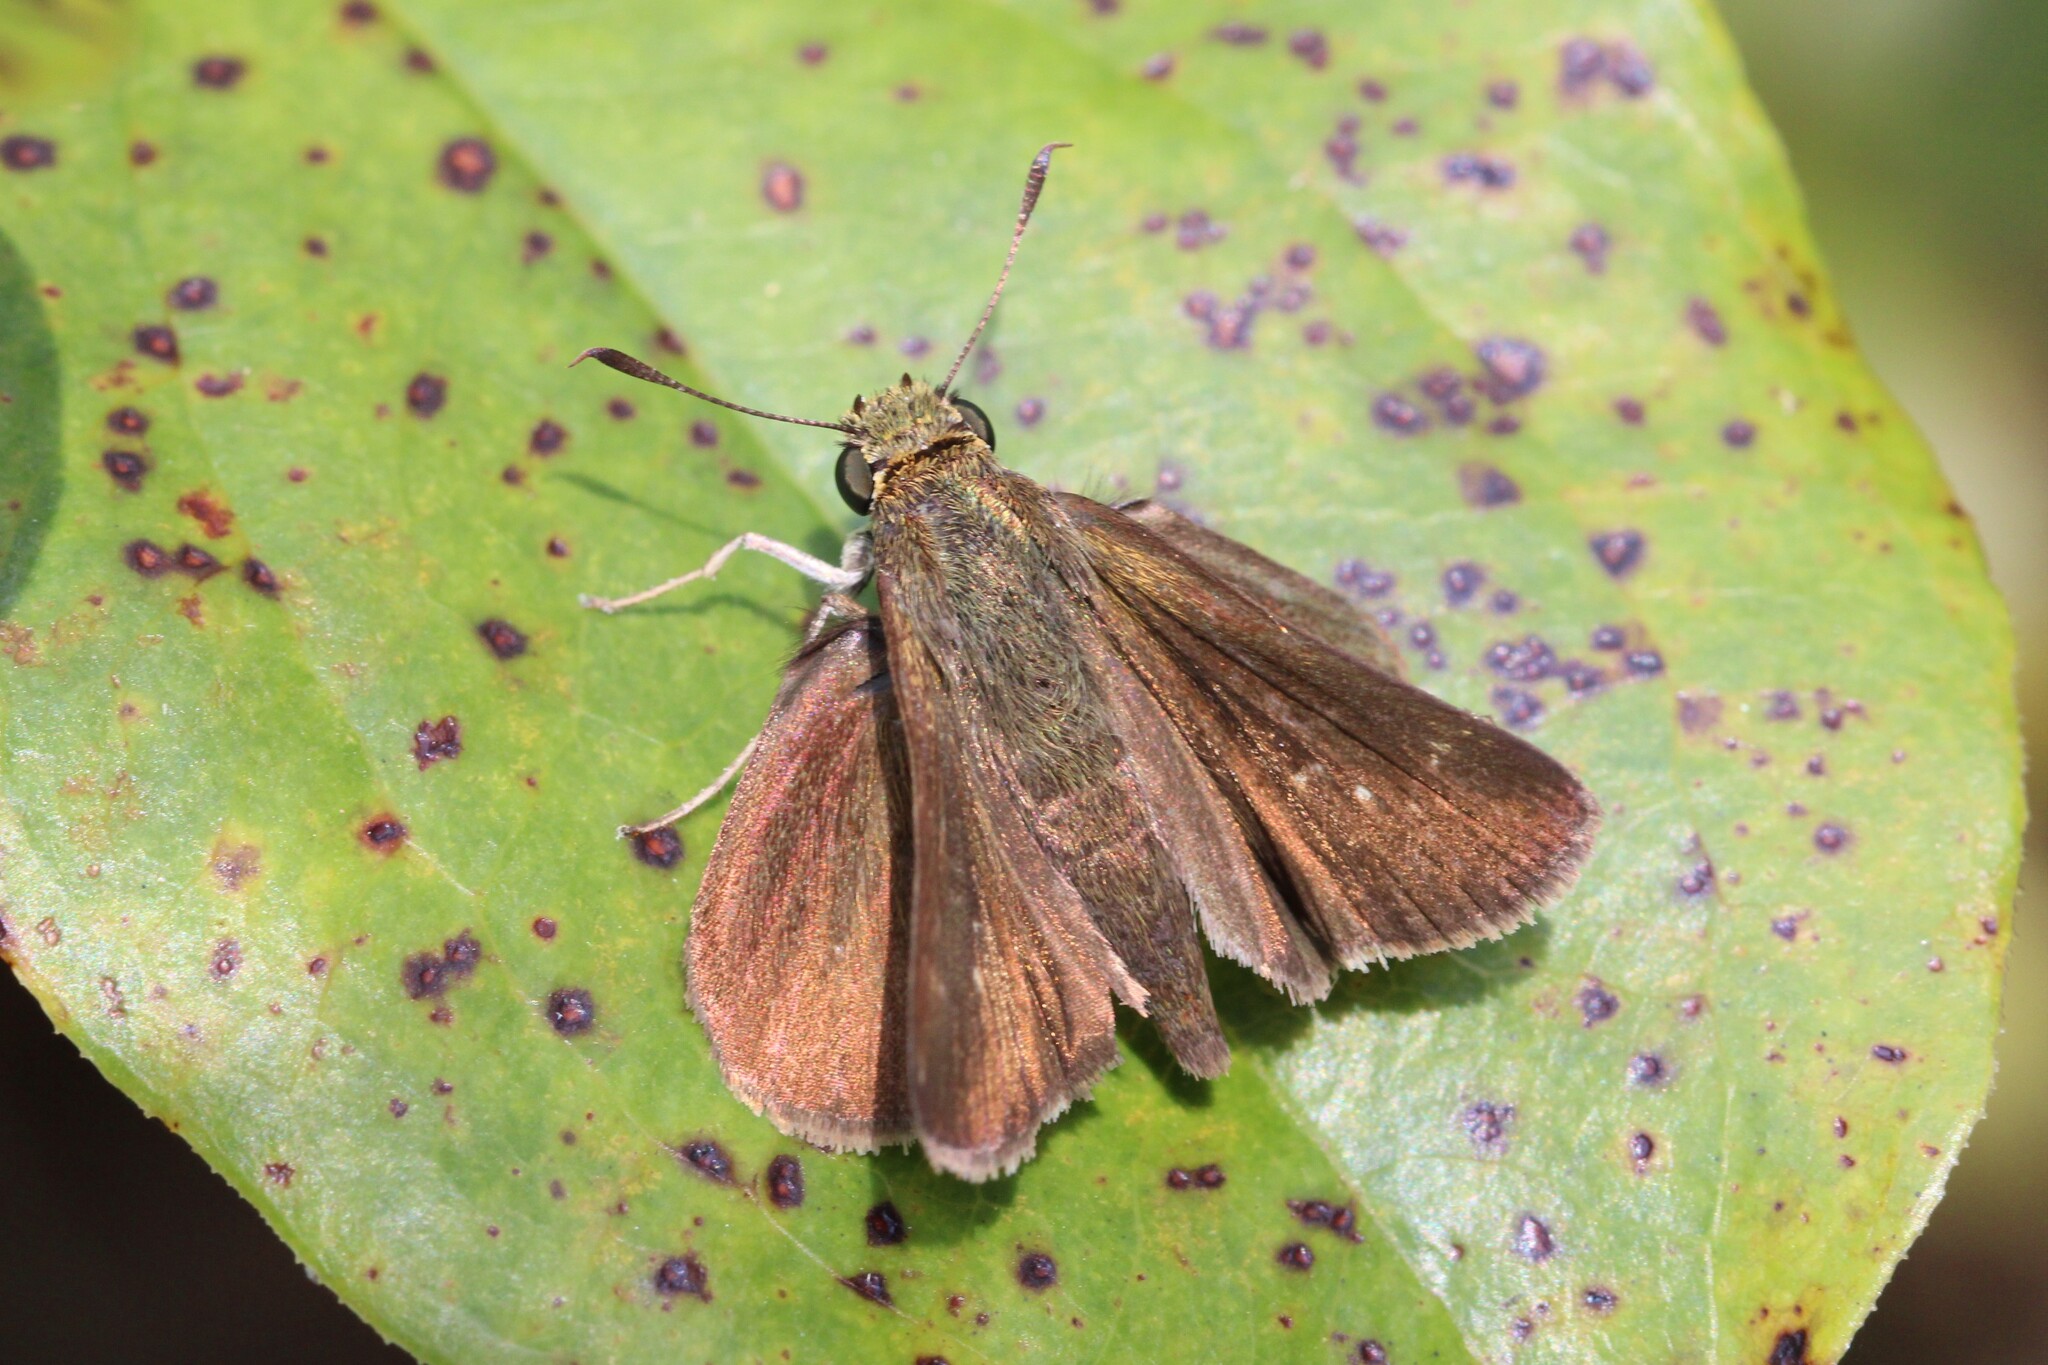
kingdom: Animalia
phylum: Arthropoda
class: Insecta
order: Lepidoptera
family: Hesperiidae
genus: Euphyes
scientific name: Euphyes vestris
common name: Dun skipper
